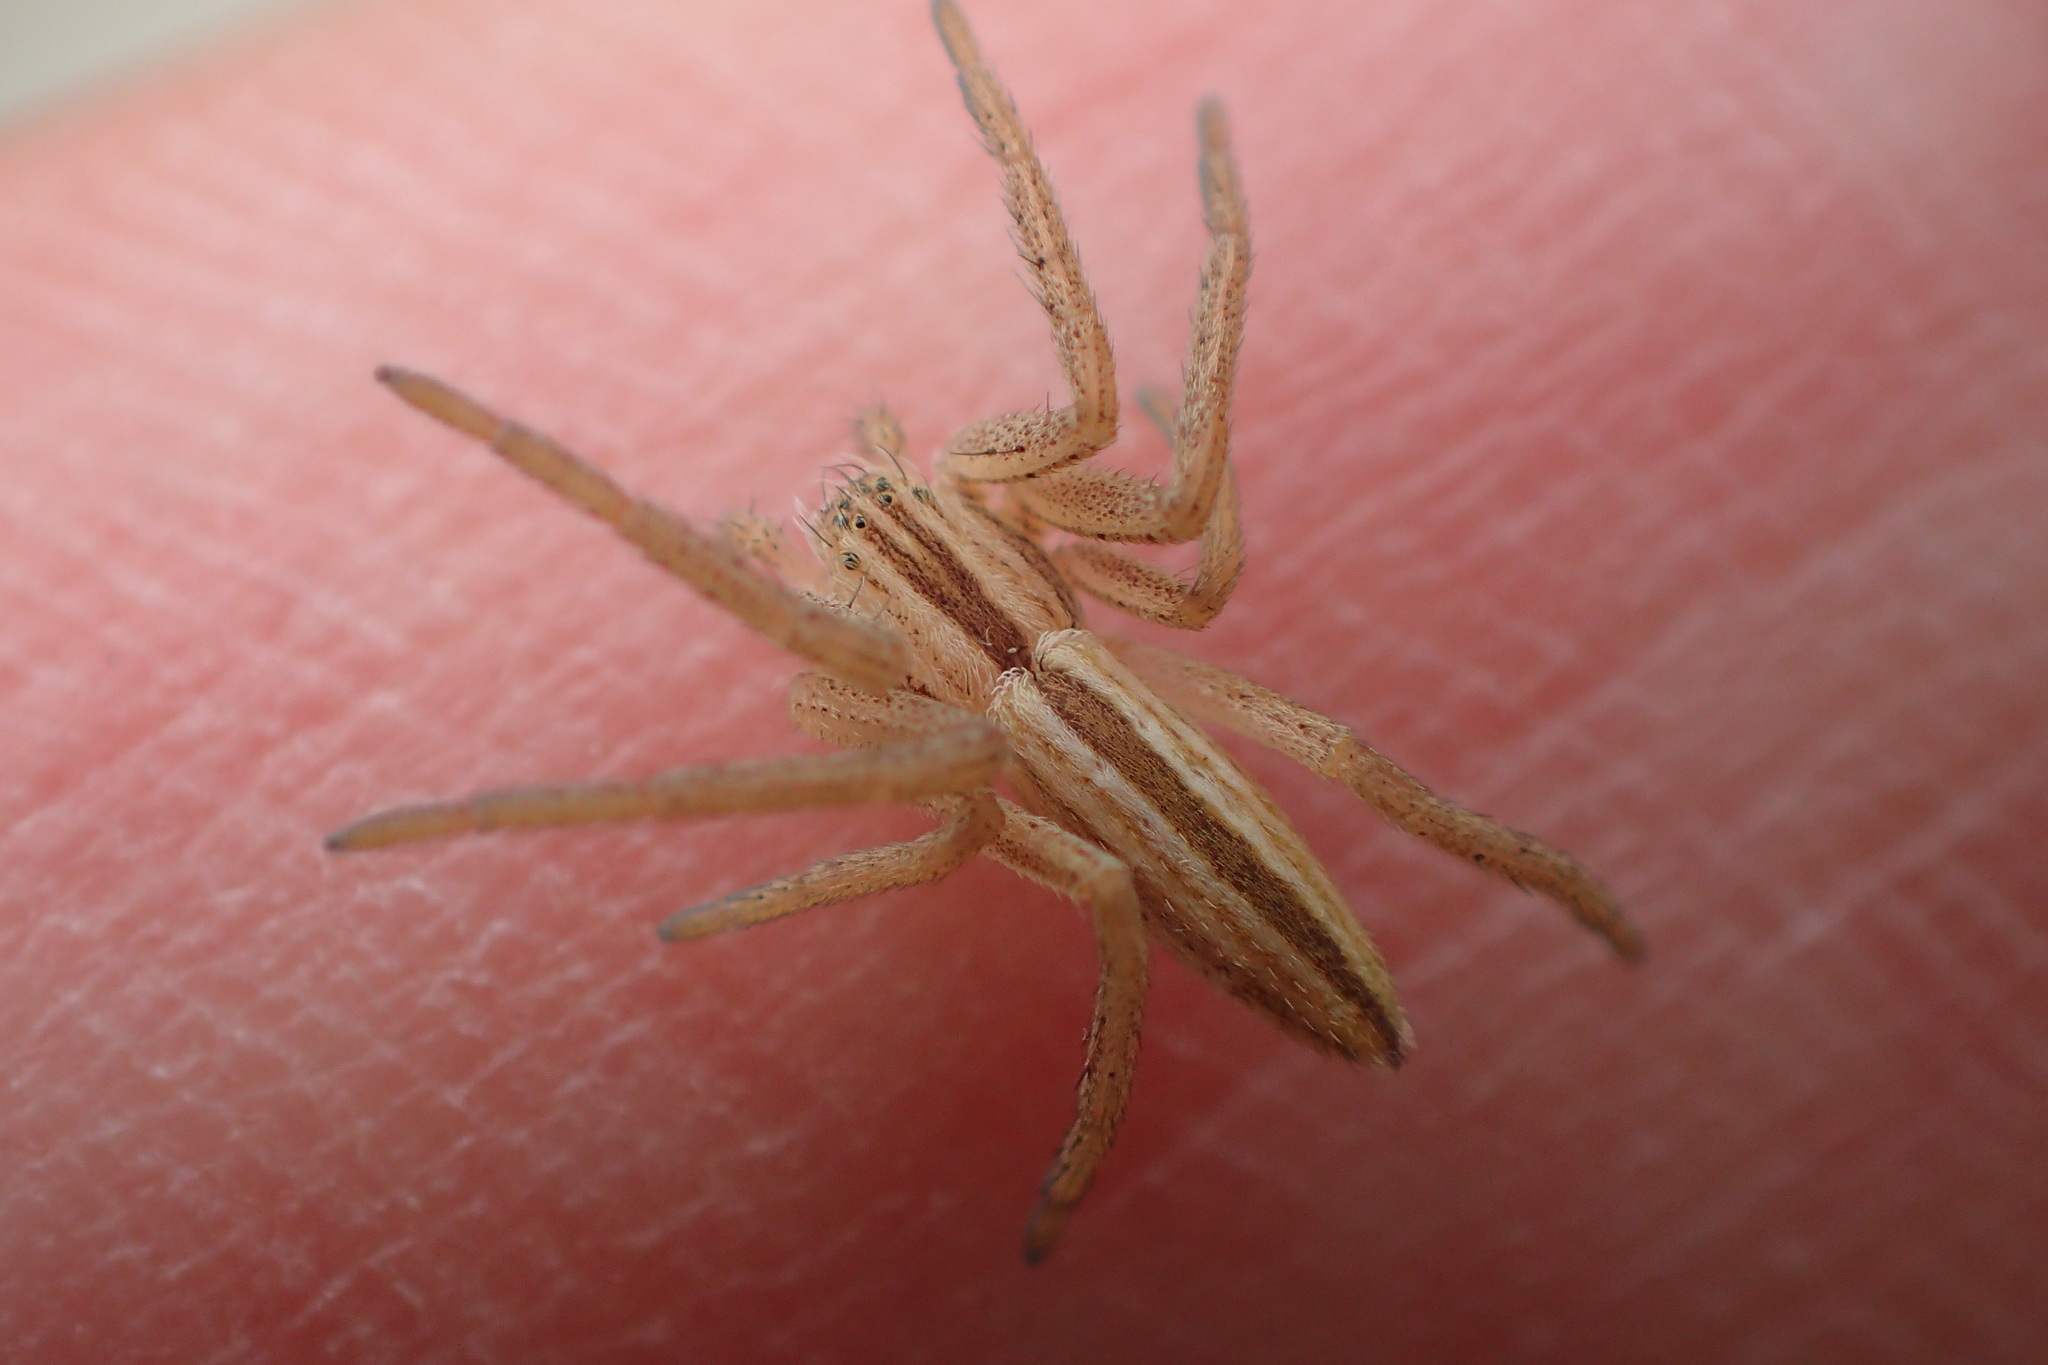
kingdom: Animalia
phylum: Arthropoda
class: Arachnida
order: Araneae
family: Philodromidae
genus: Tibellus
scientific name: Tibellus
